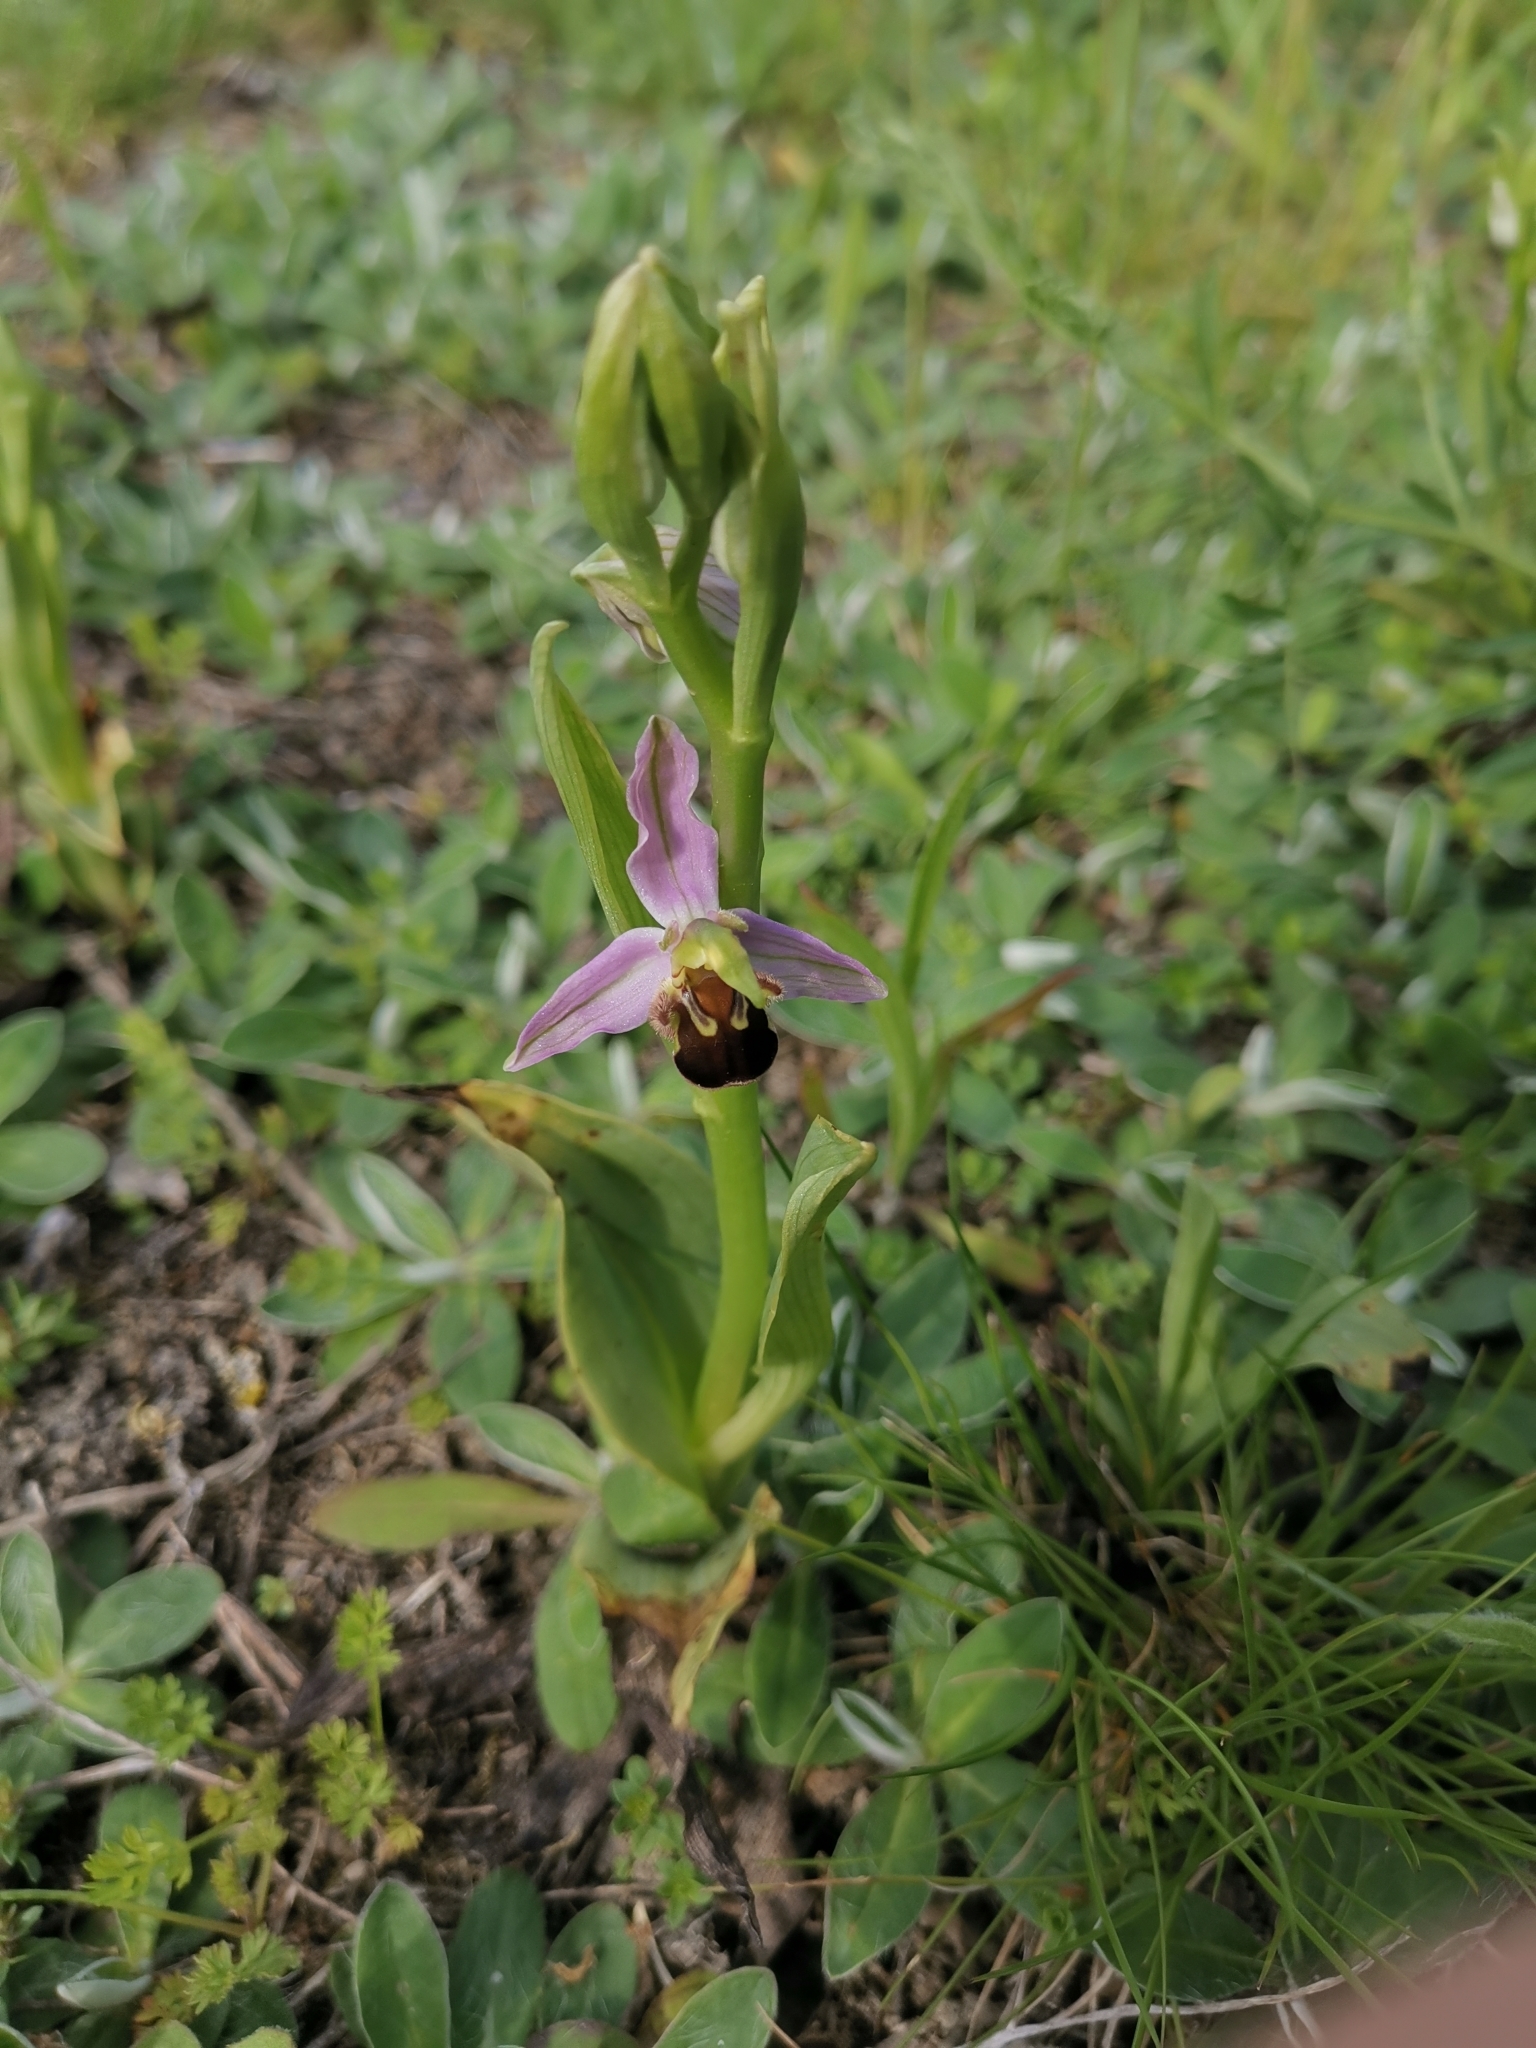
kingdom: Plantae
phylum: Tracheophyta
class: Liliopsida
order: Asparagales
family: Orchidaceae
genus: Ophrys
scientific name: Ophrys apifera
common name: Bee orchid
